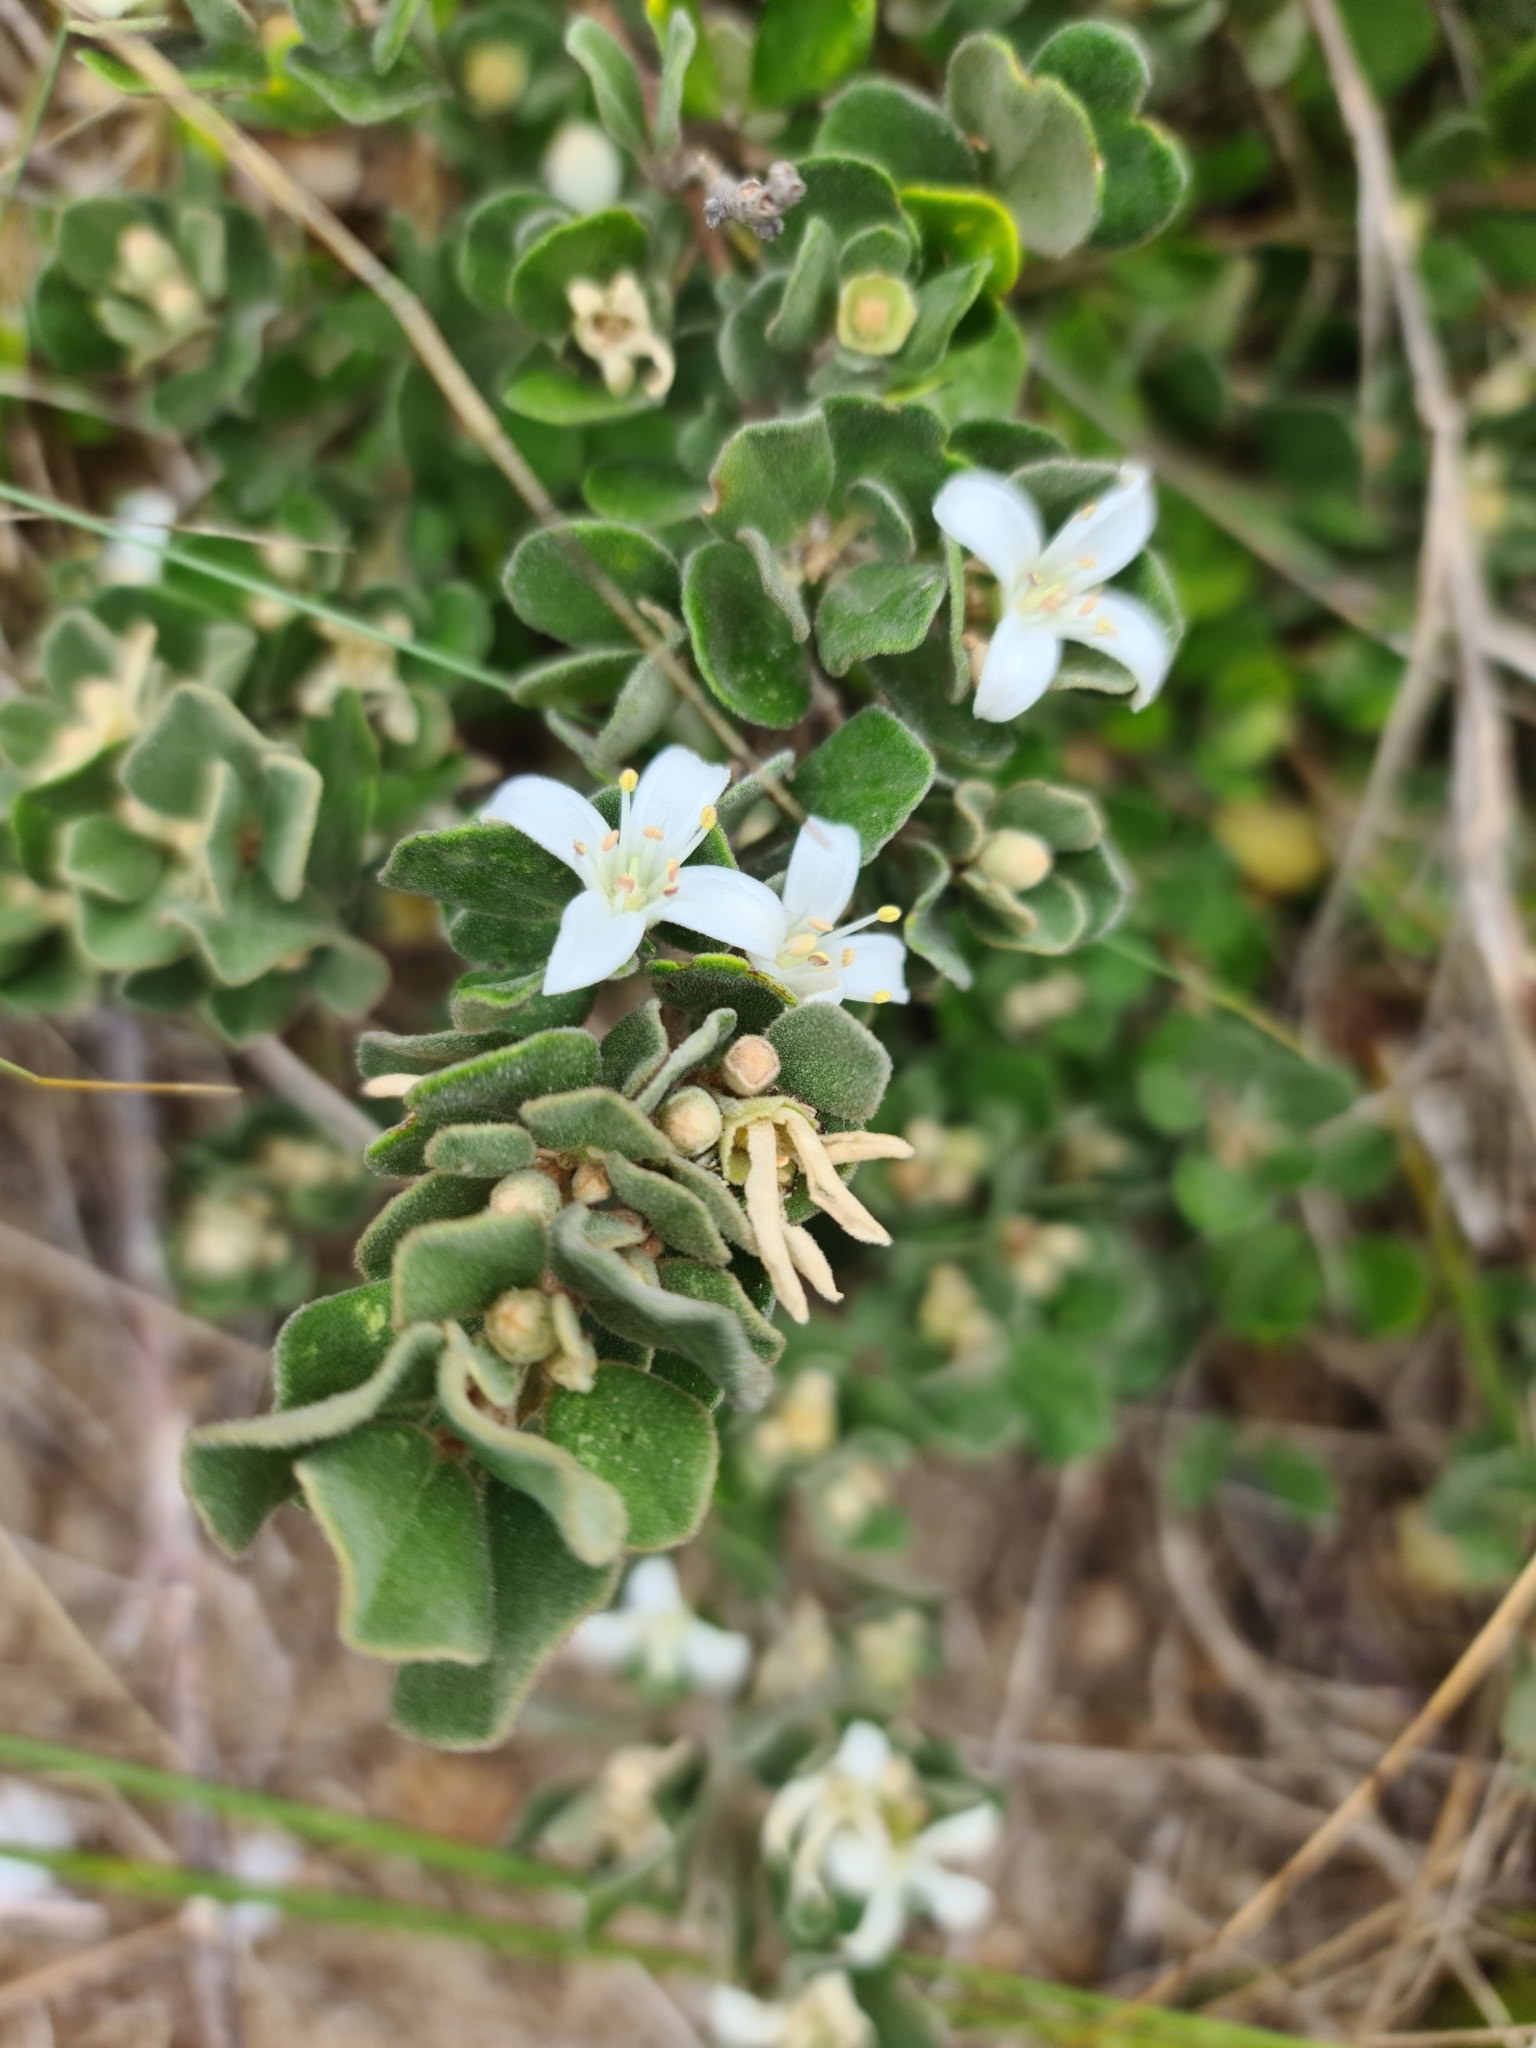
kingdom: Plantae
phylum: Tracheophyta
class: Magnoliopsida
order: Sapindales
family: Rutaceae
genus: Correa
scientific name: Correa alba
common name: White correa
